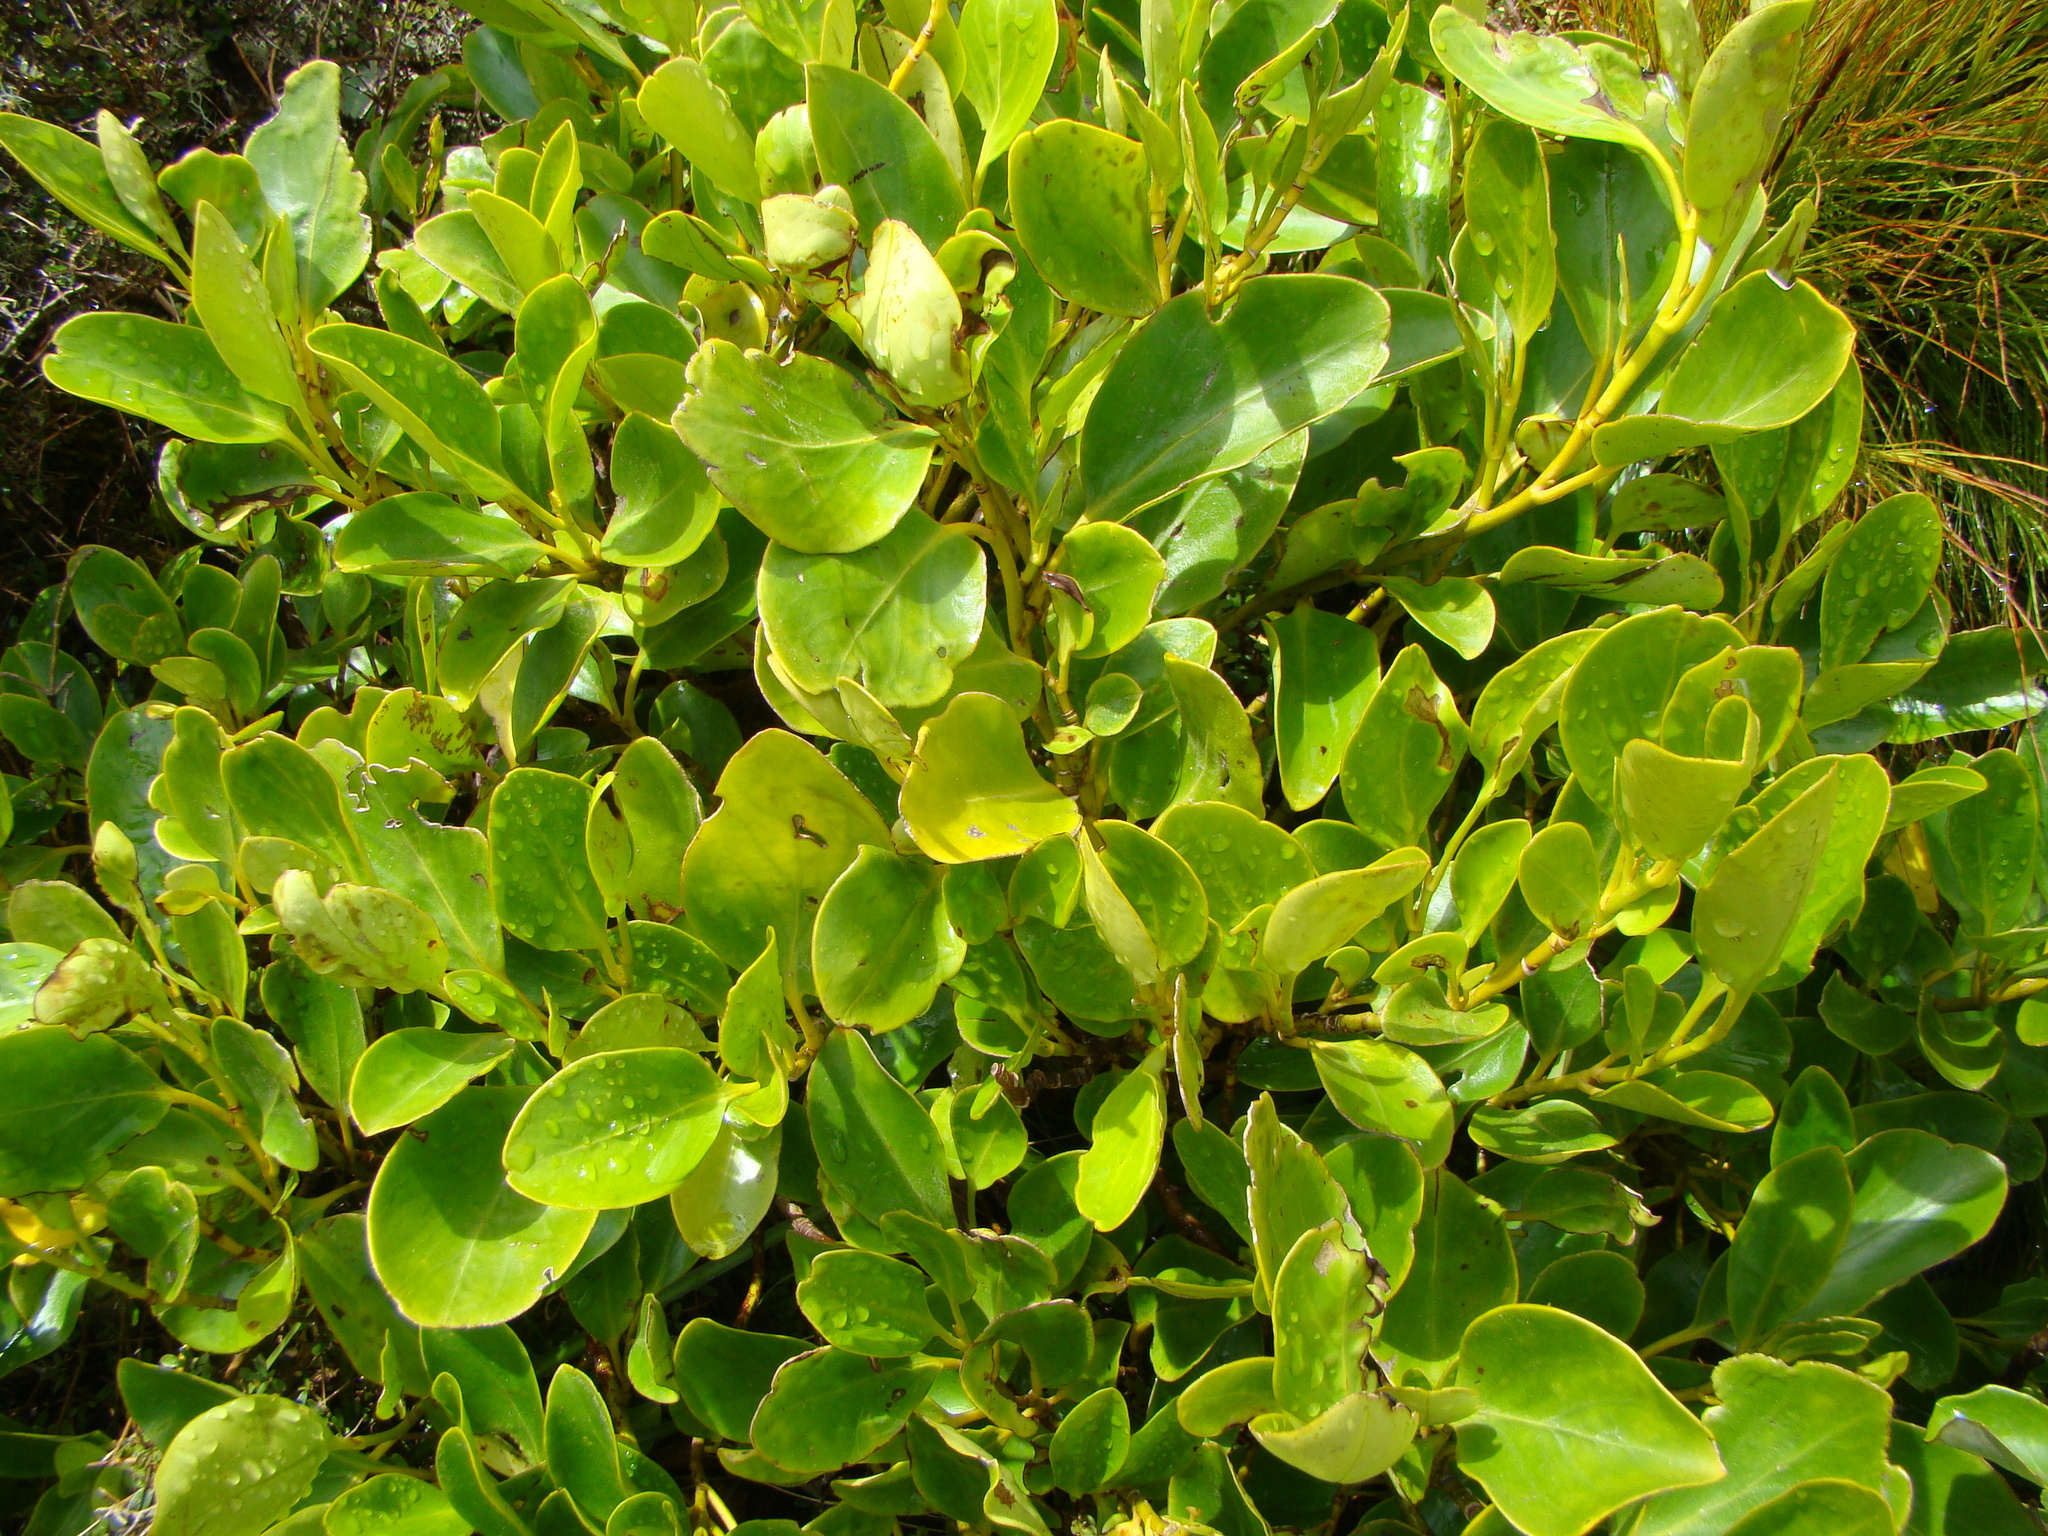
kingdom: Plantae
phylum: Tracheophyta
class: Magnoliopsida
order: Apiales
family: Griseliniaceae
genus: Griselinia
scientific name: Griselinia littoralis
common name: New zealand broadleaf
